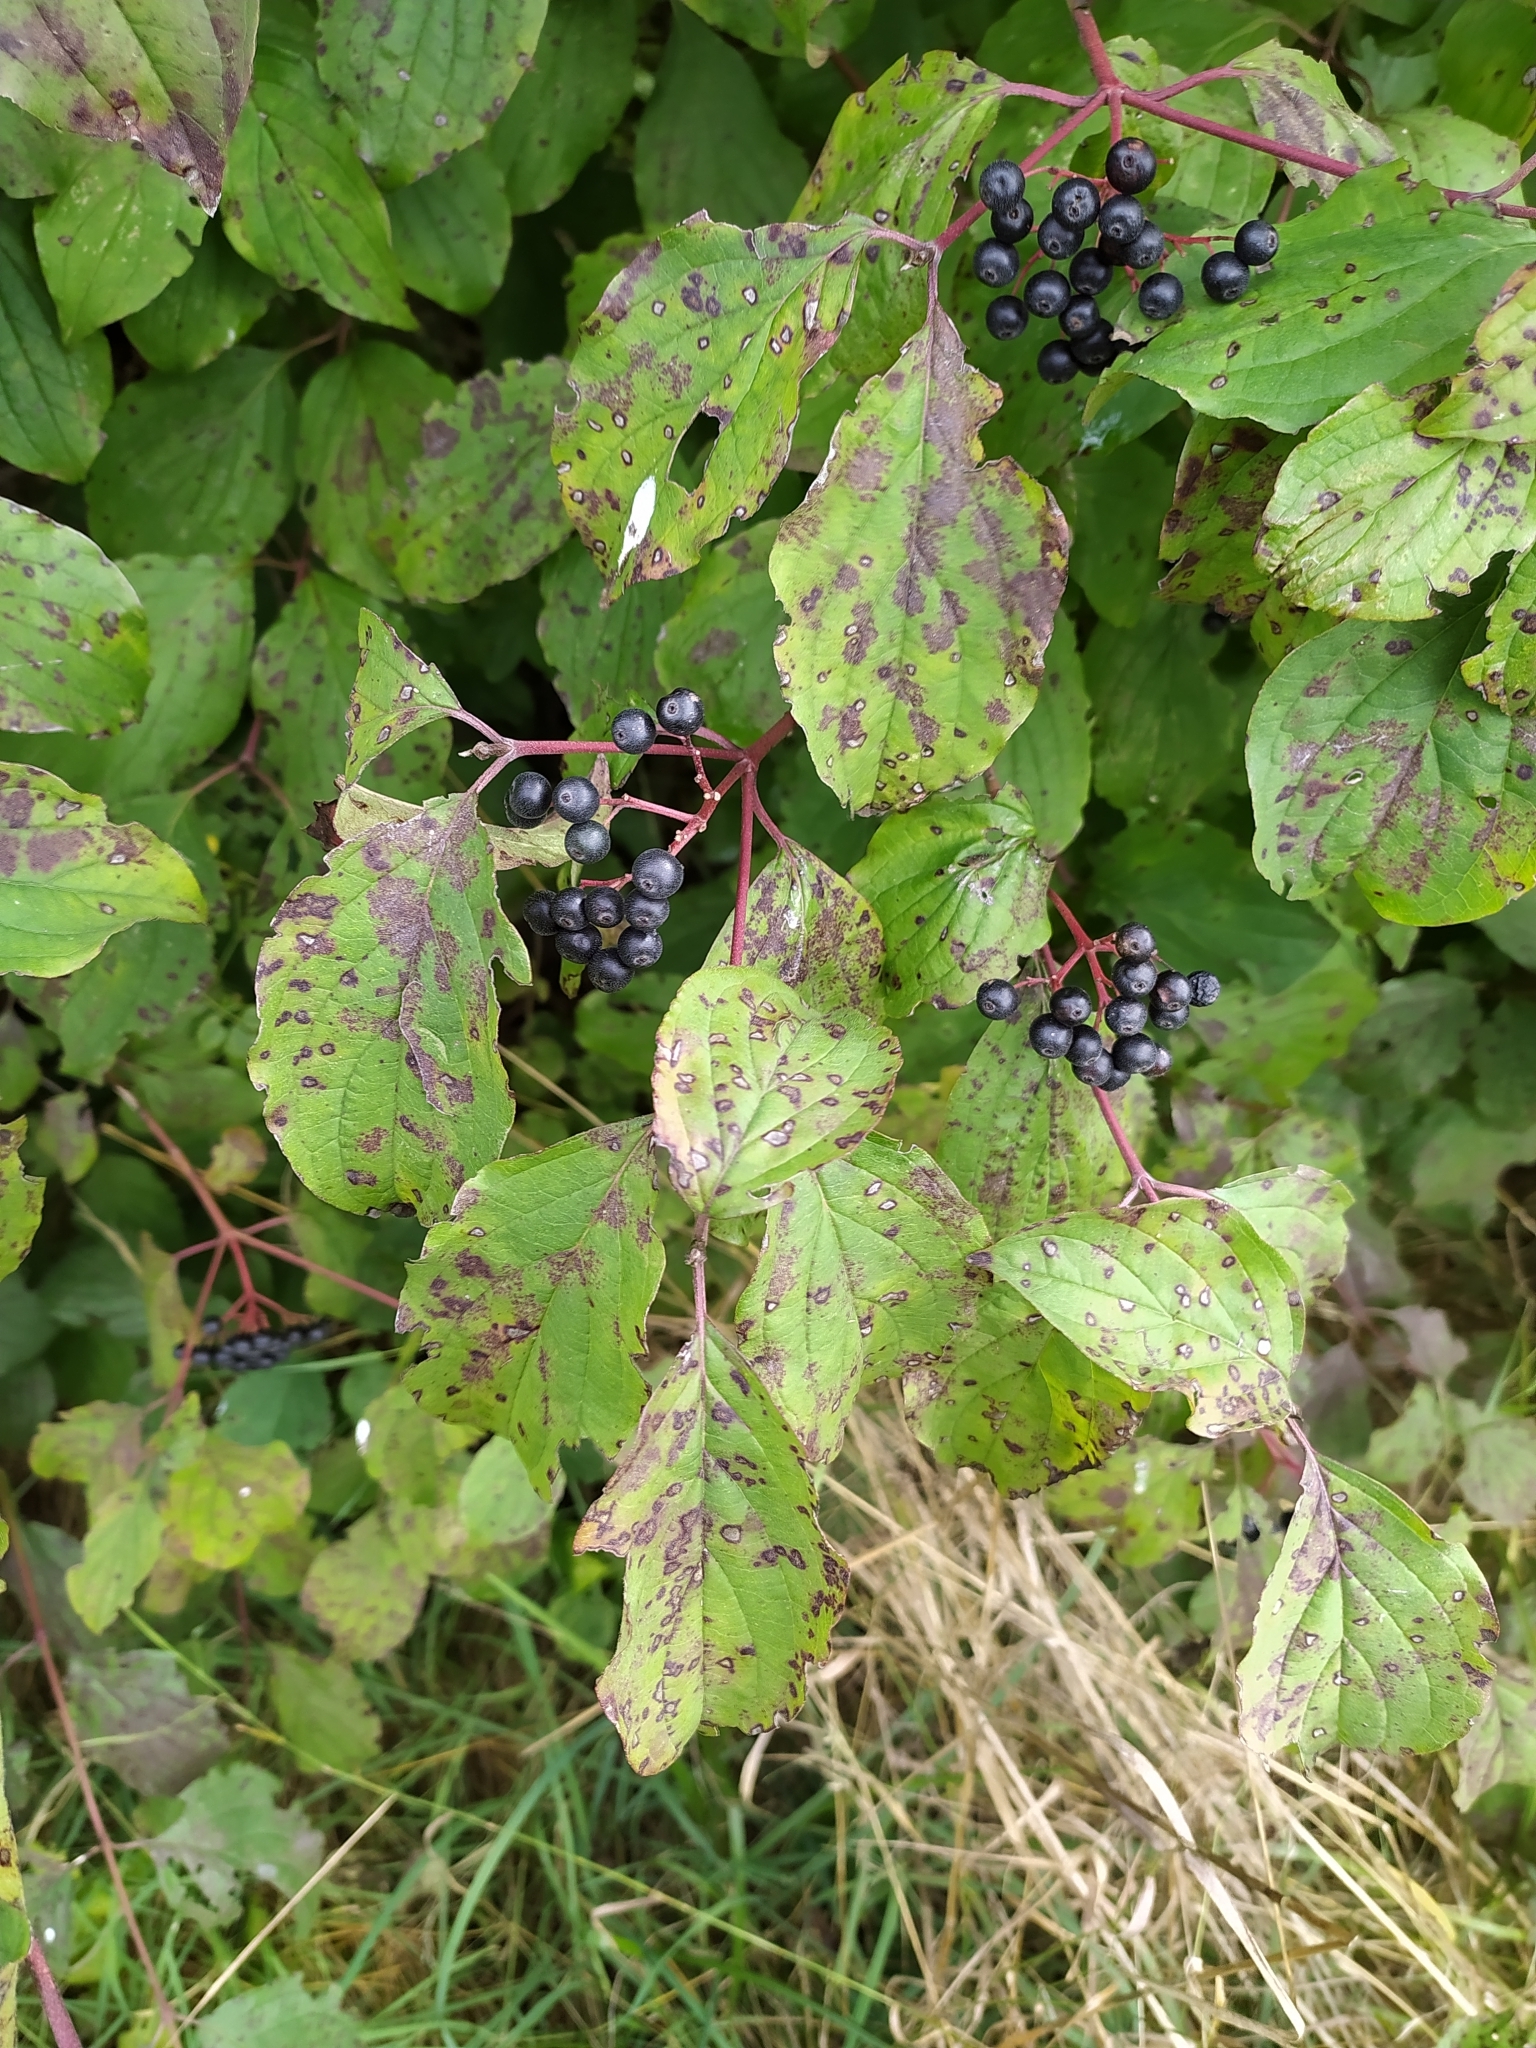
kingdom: Plantae
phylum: Tracheophyta
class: Magnoliopsida
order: Cornales
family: Cornaceae
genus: Cornus
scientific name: Cornus sanguinea
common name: Dogwood
